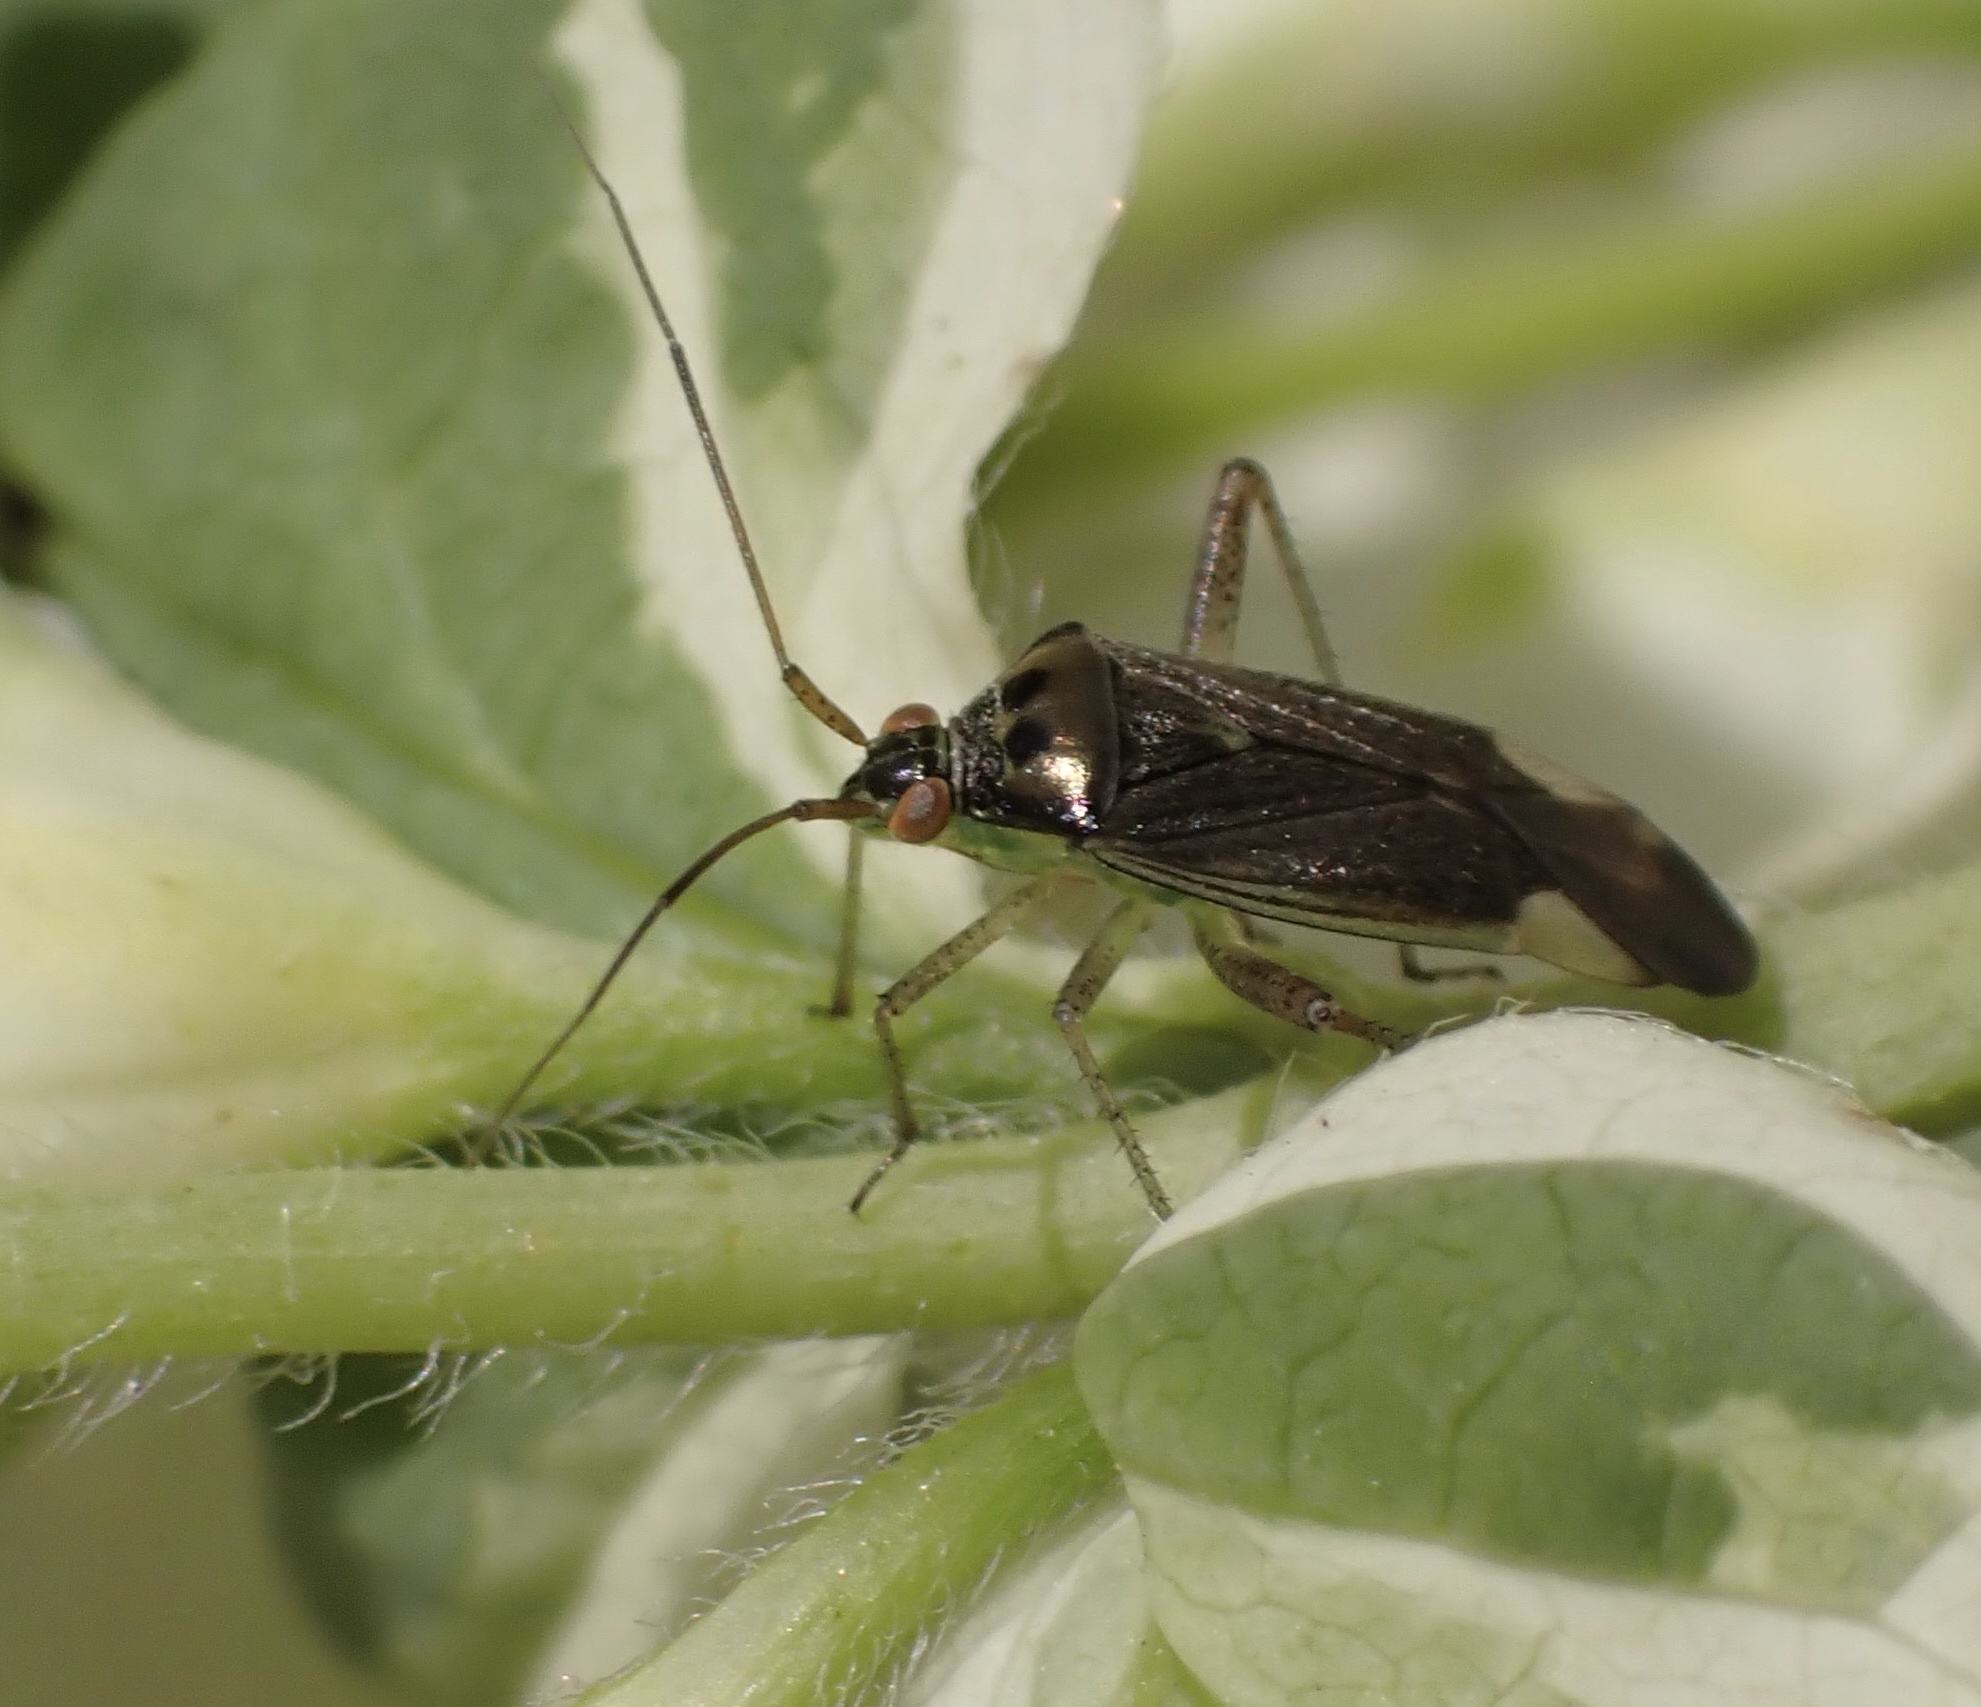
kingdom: Animalia
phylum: Arthropoda
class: Insecta
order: Hemiptera
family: Miridae
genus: Closterotomus
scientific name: Closterotomus trivialis
